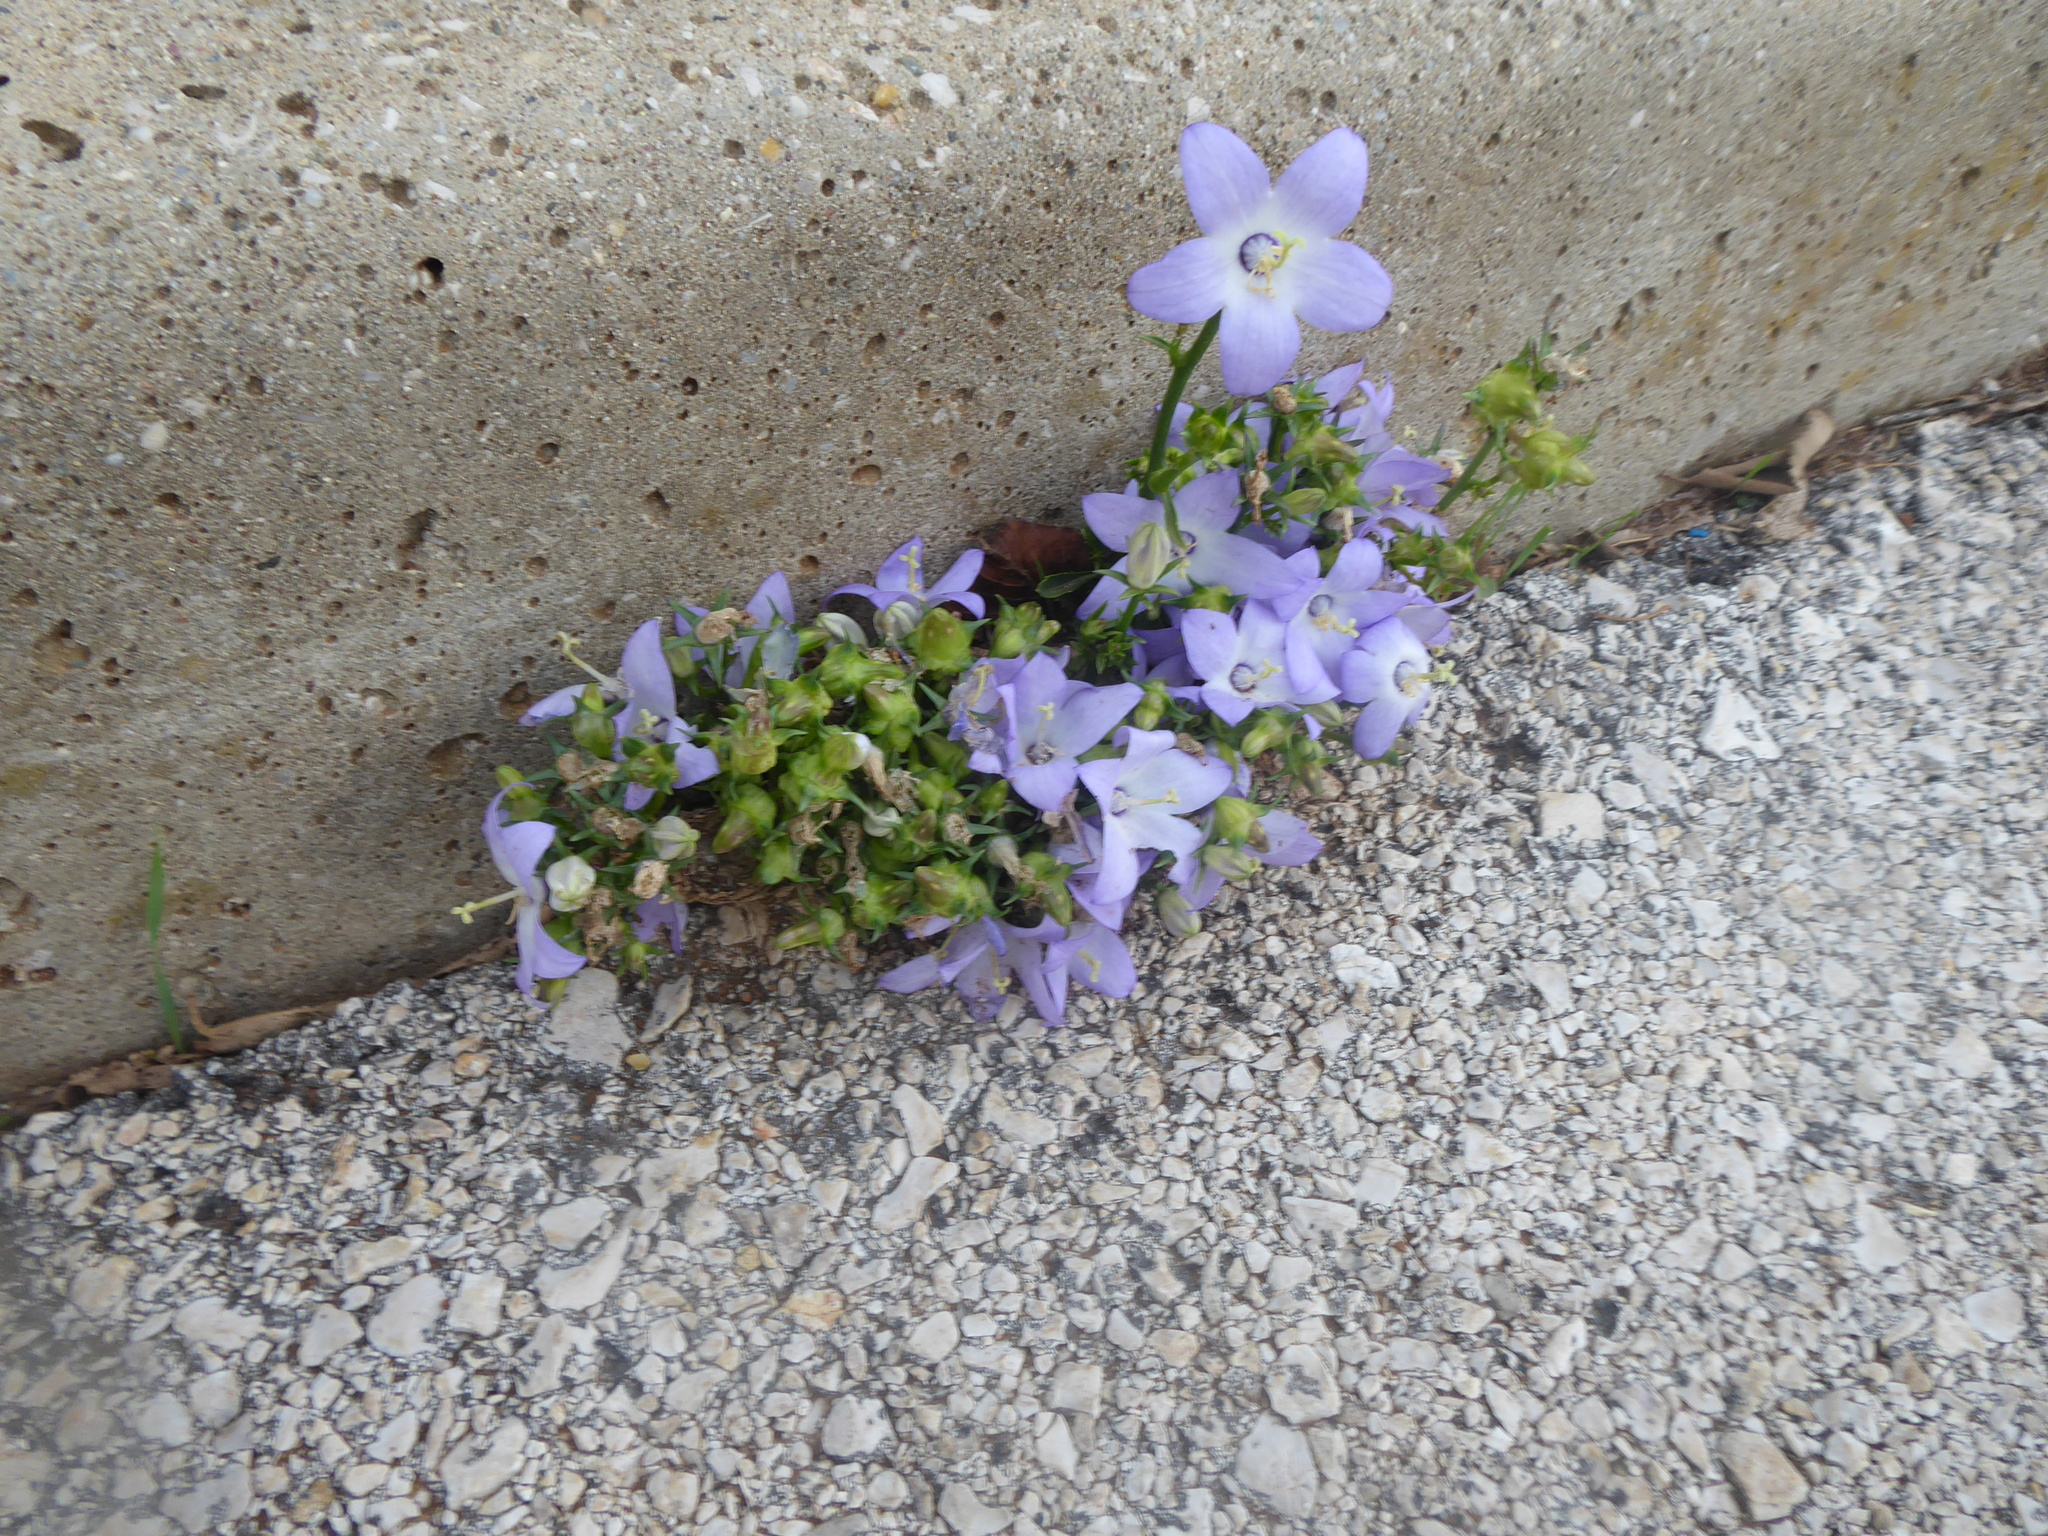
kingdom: Plantae
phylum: Tracheophyta
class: Magnoliopsida
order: Asterales
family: Campanulaceae
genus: Campanula
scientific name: Campanula pyramidalis
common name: Chimney bellflower
